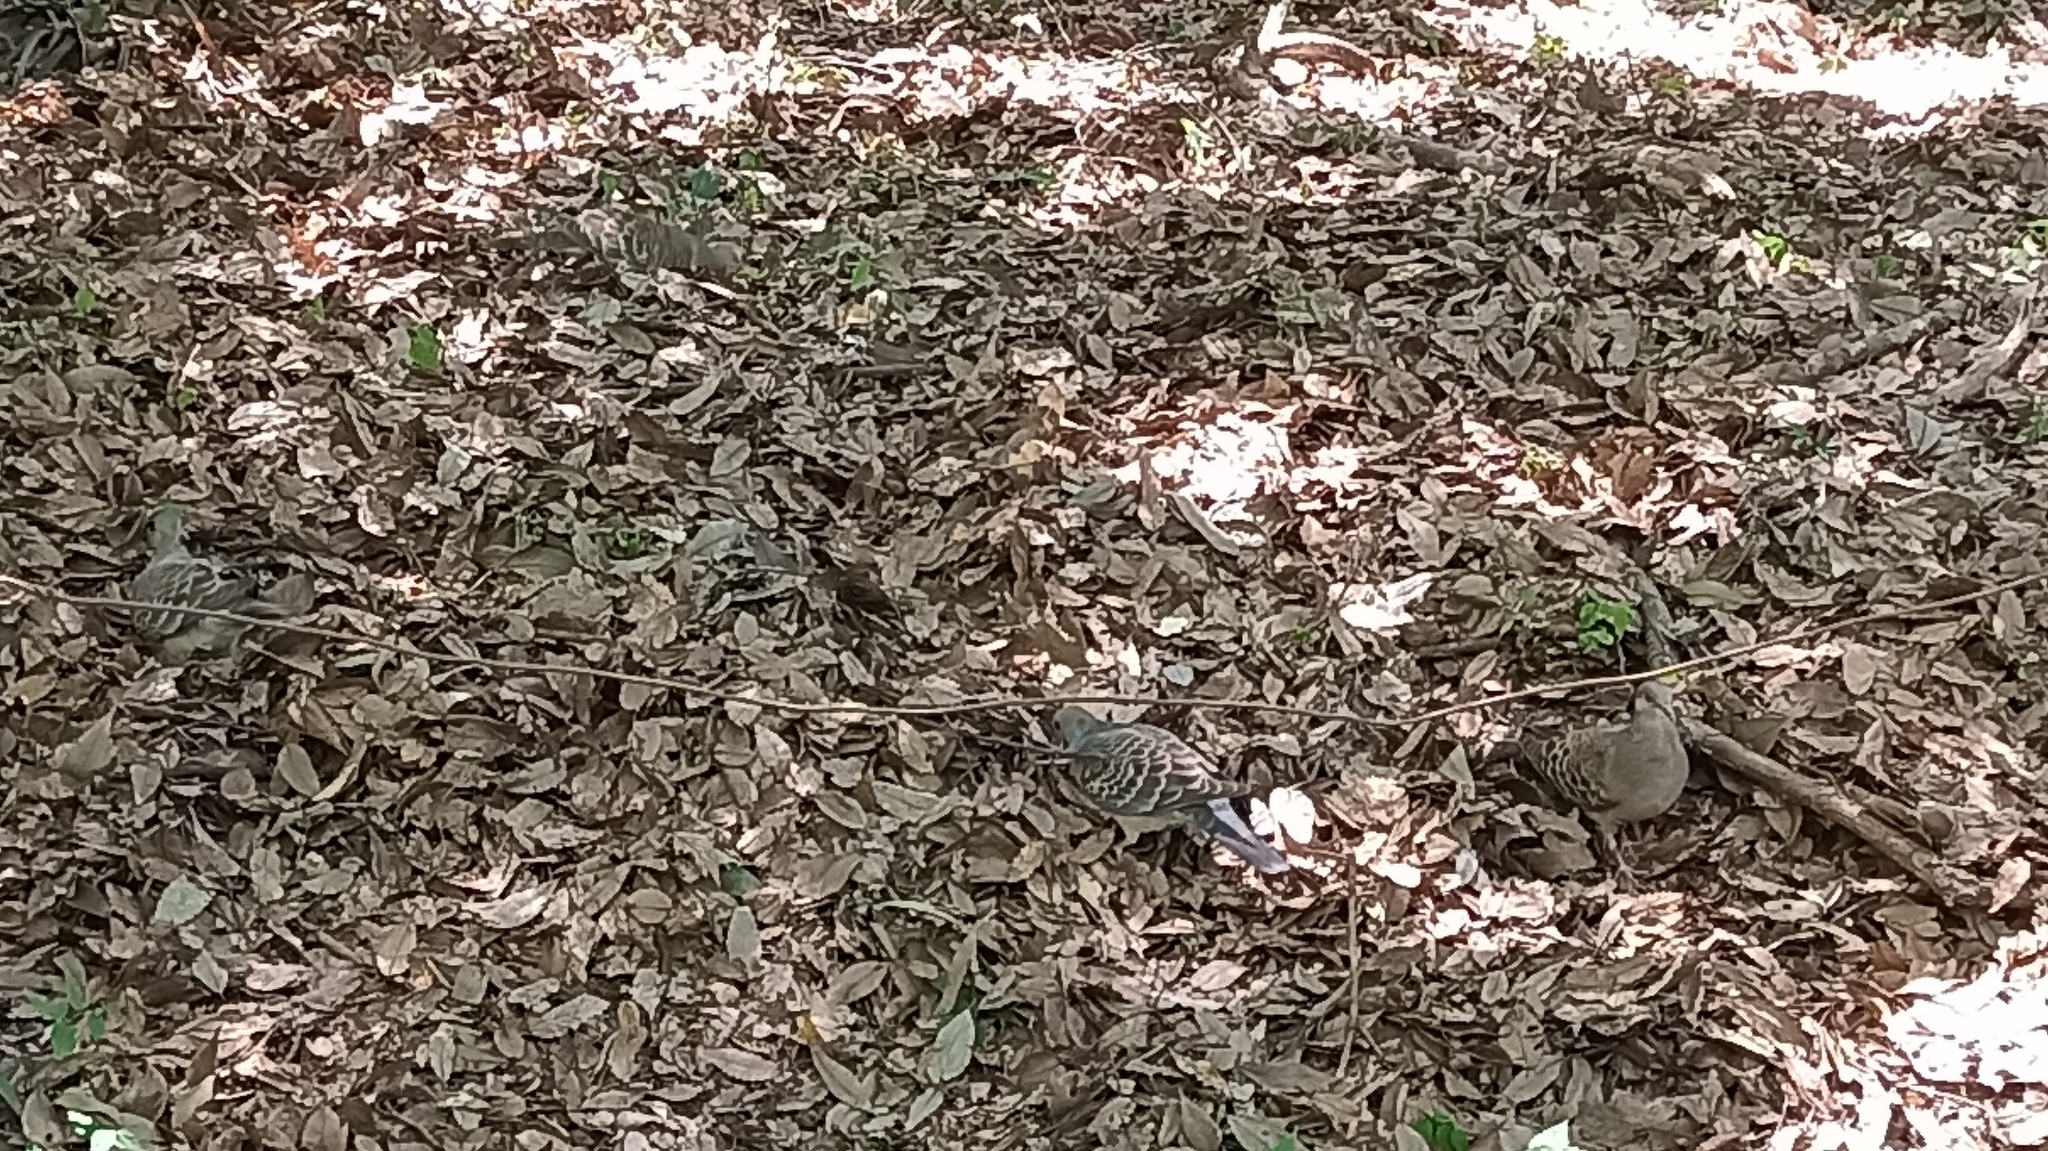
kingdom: Animalia
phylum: Chordata
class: Aves
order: Columbiformes
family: Columbidae
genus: Streptopelia
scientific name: Streptopelia orientalis
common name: Oriental turtle dove
